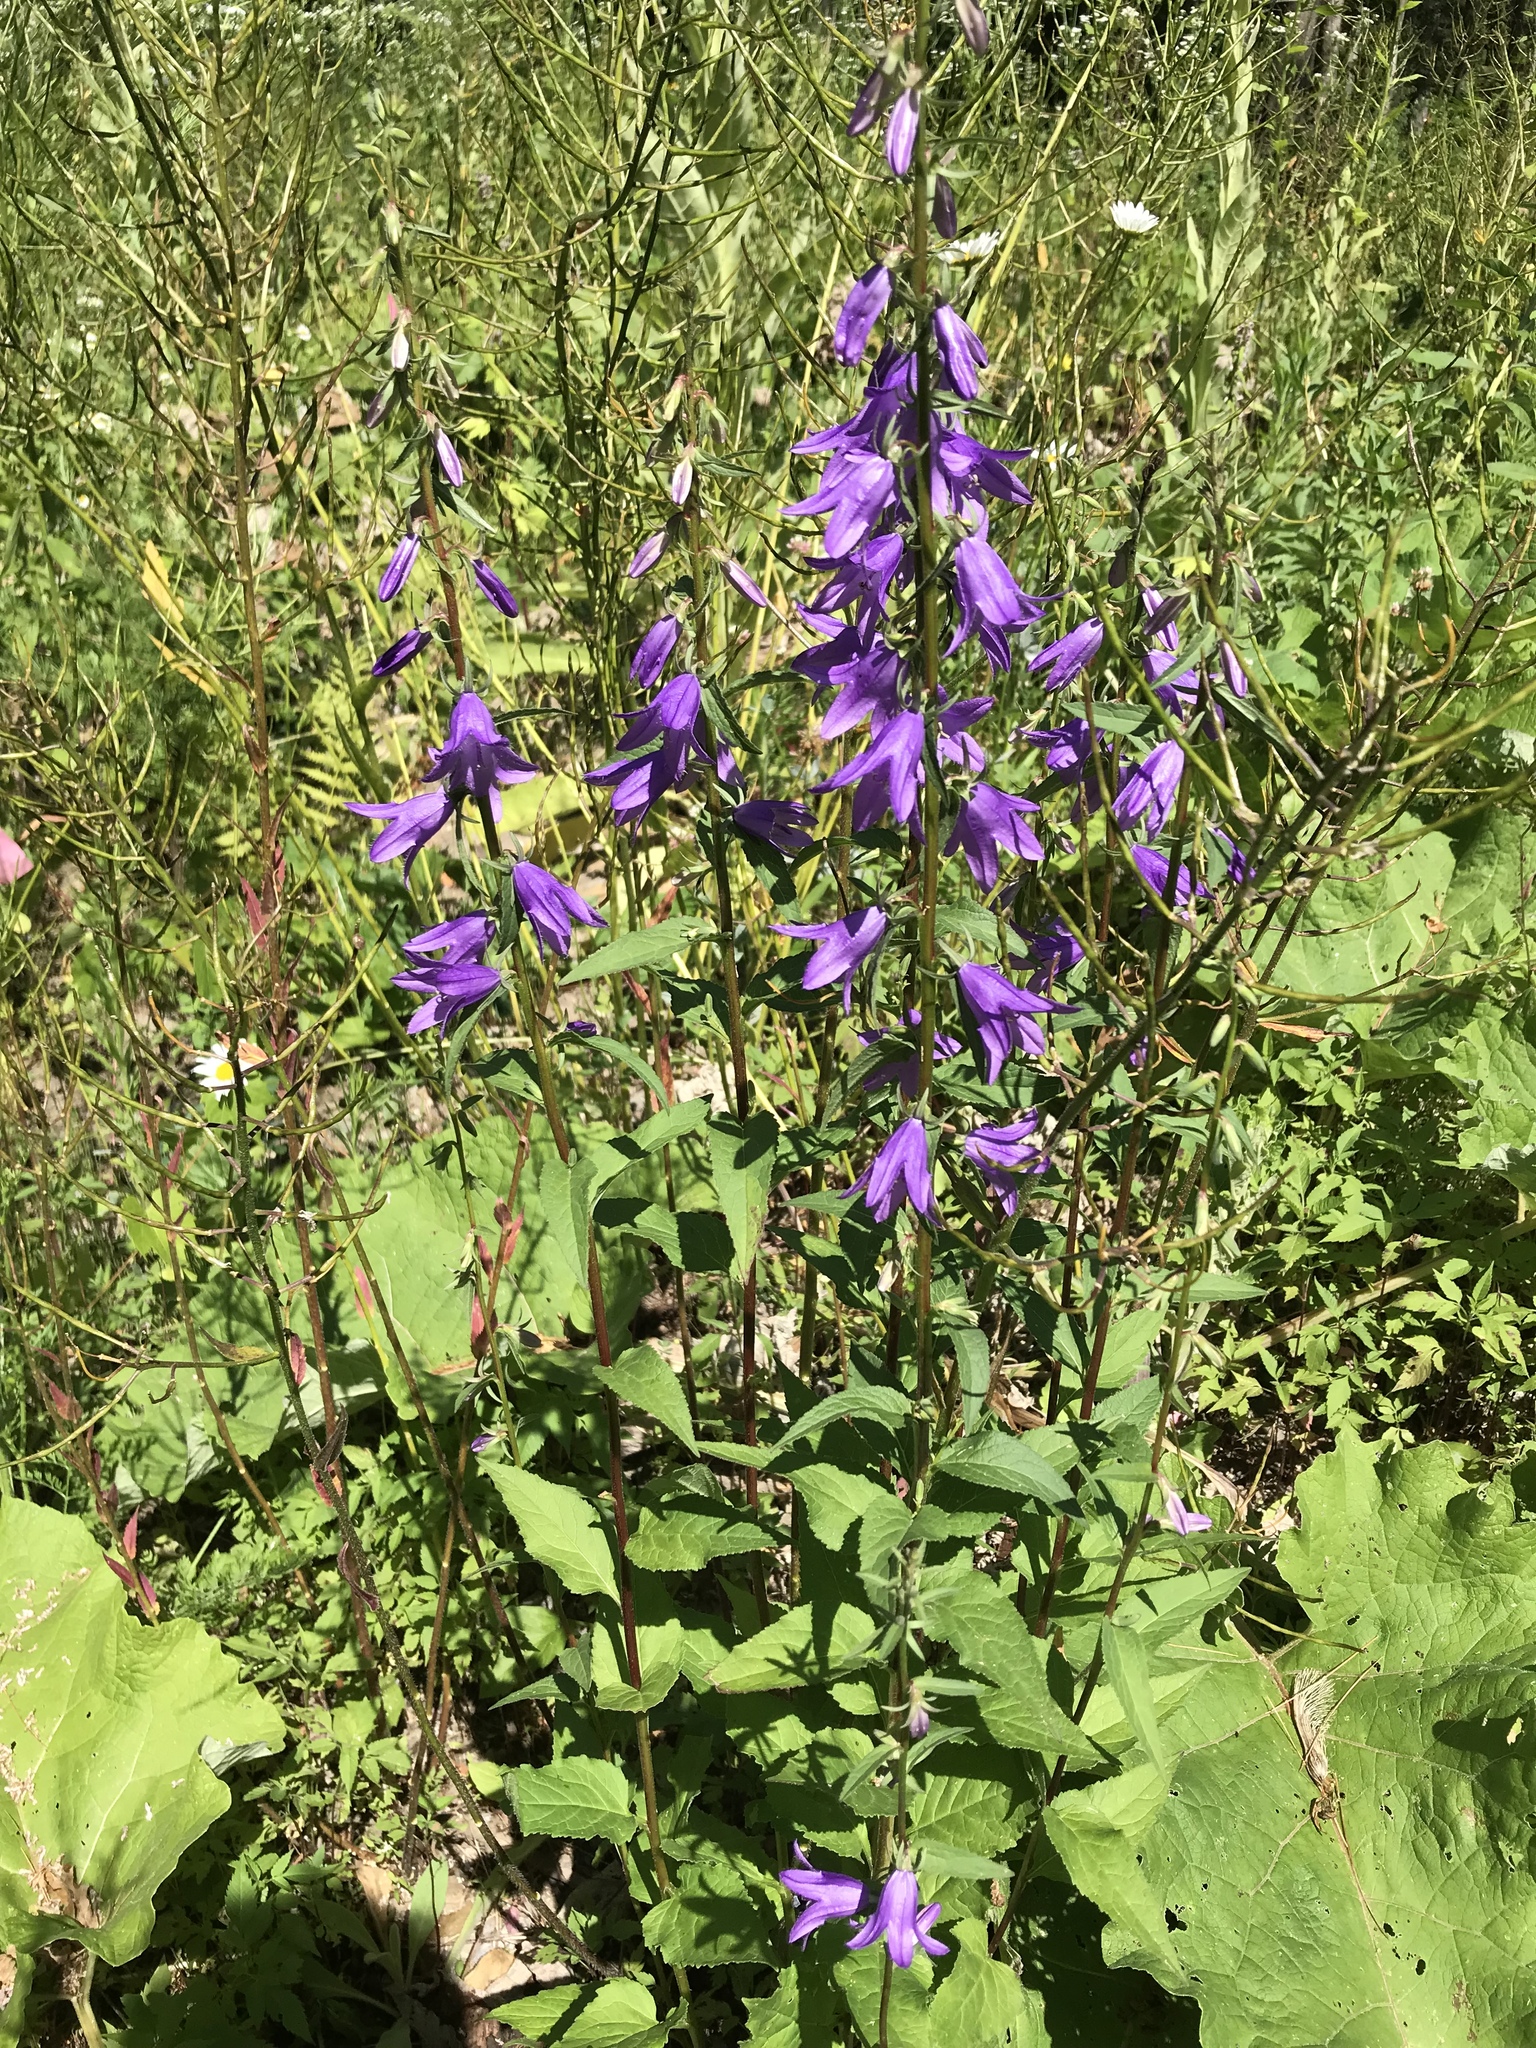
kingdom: Plantae
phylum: Tracheophyta
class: Magnoliopsida
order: Asterales
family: Campanulaceae
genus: Campanula
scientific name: Campanula rapunculoides
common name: Creeping bellflower
